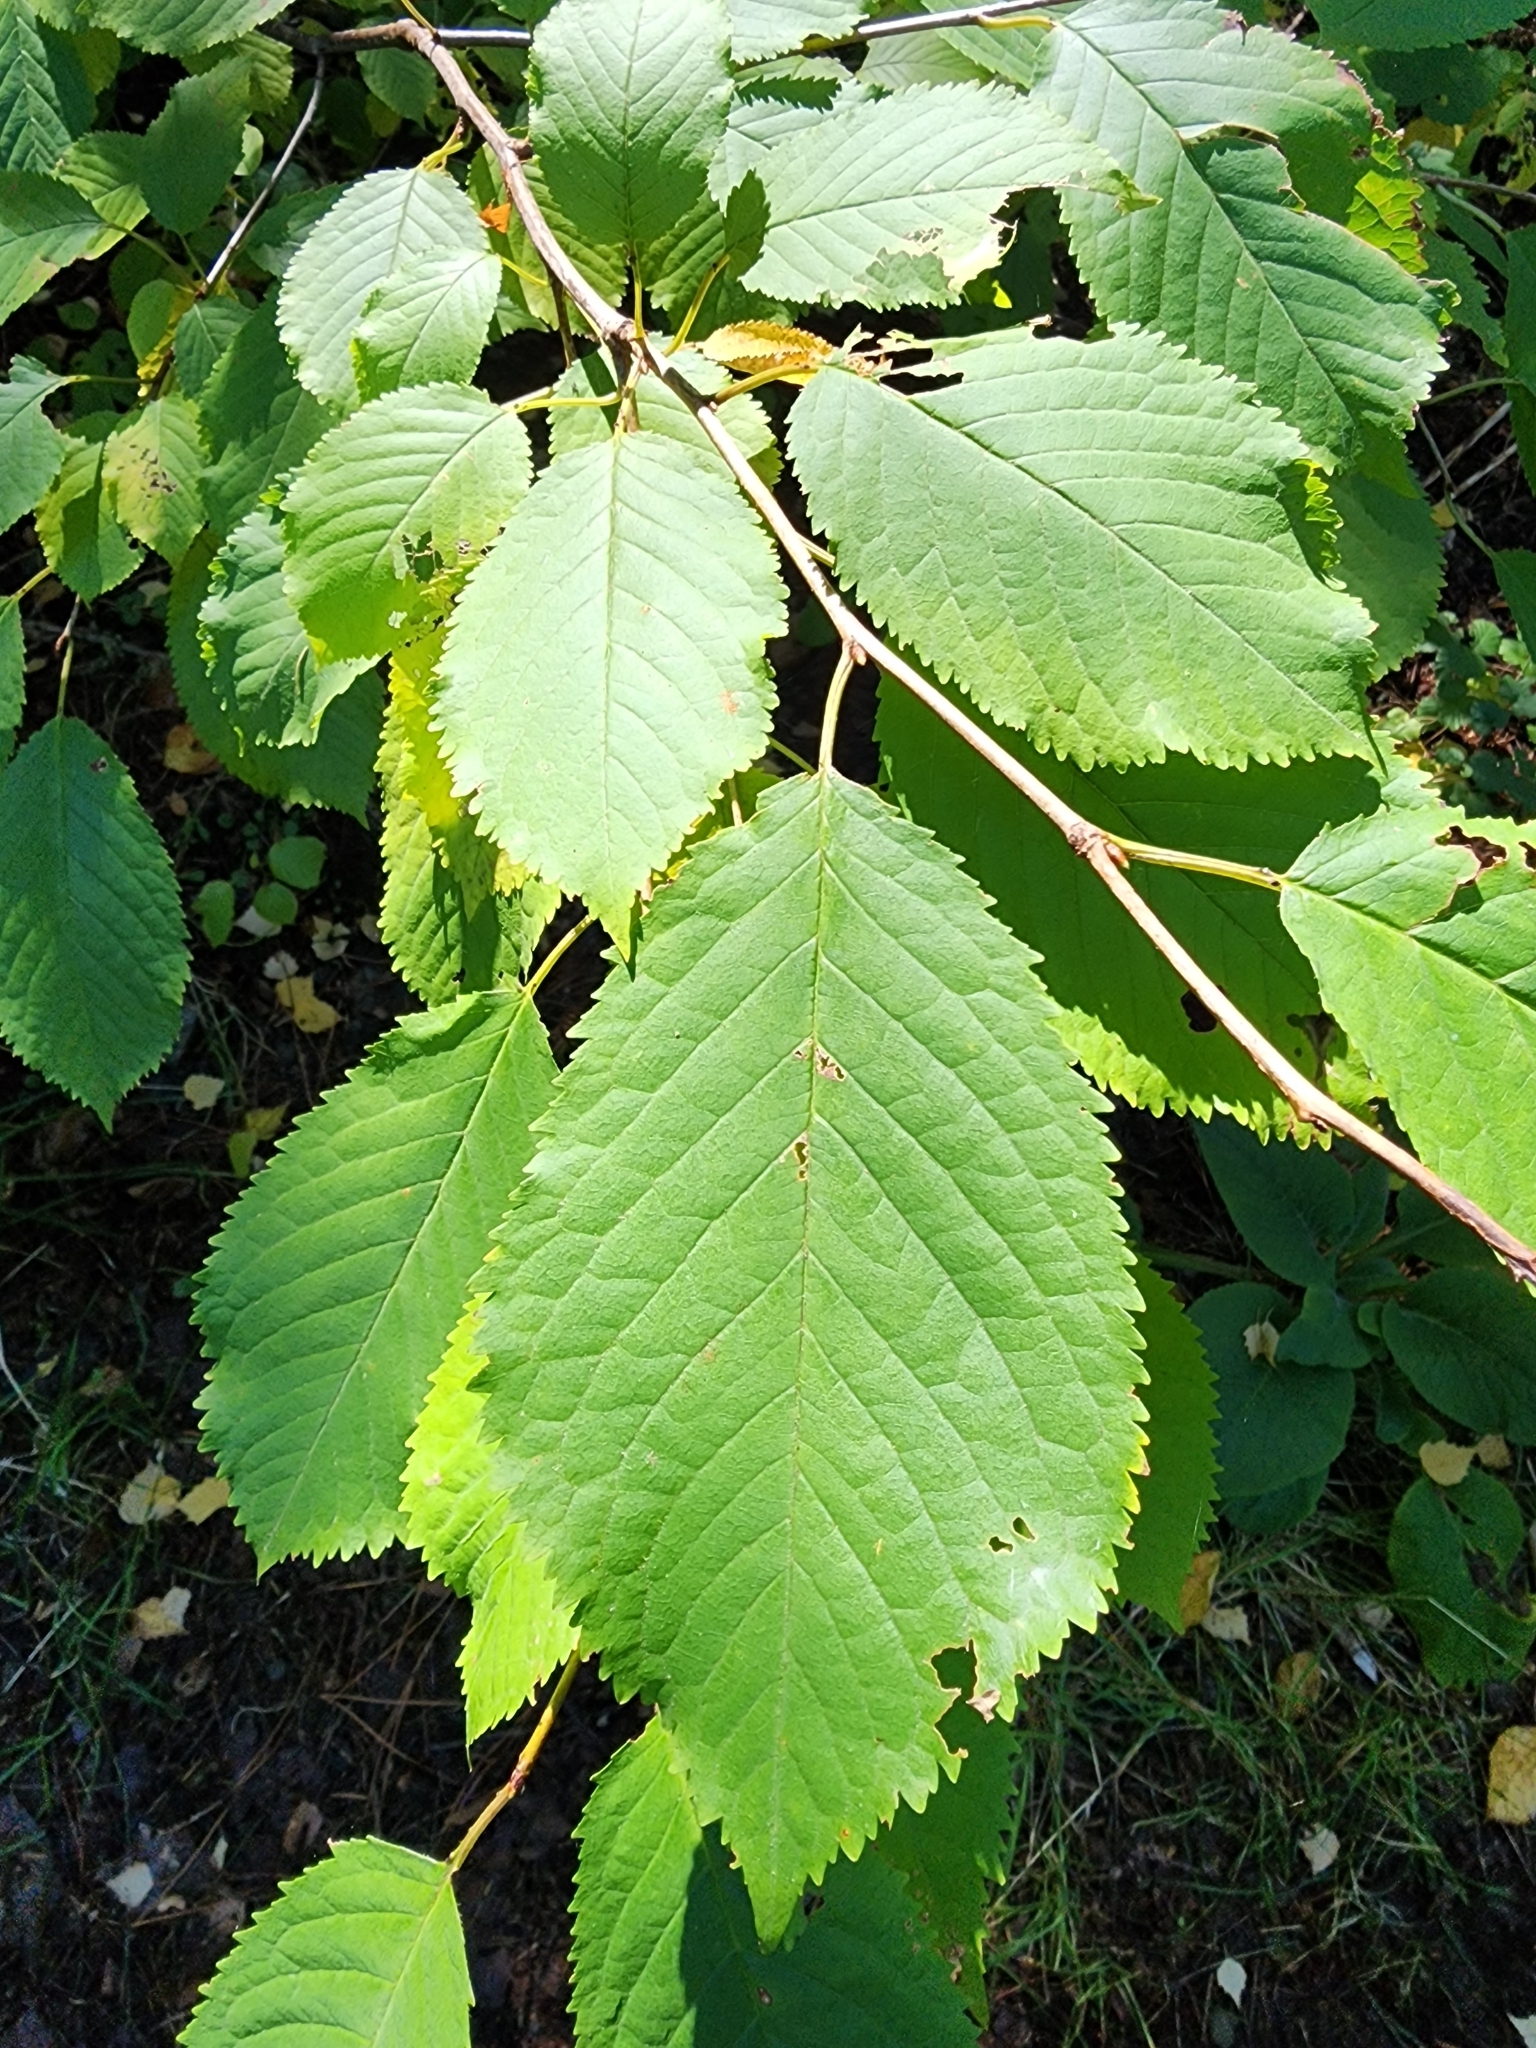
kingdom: Plantae
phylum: Tracheophyta
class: Magnoliopsida
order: Rosales
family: Rosaceae
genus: Prunus
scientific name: Prunus avium
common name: Sweet cherry
